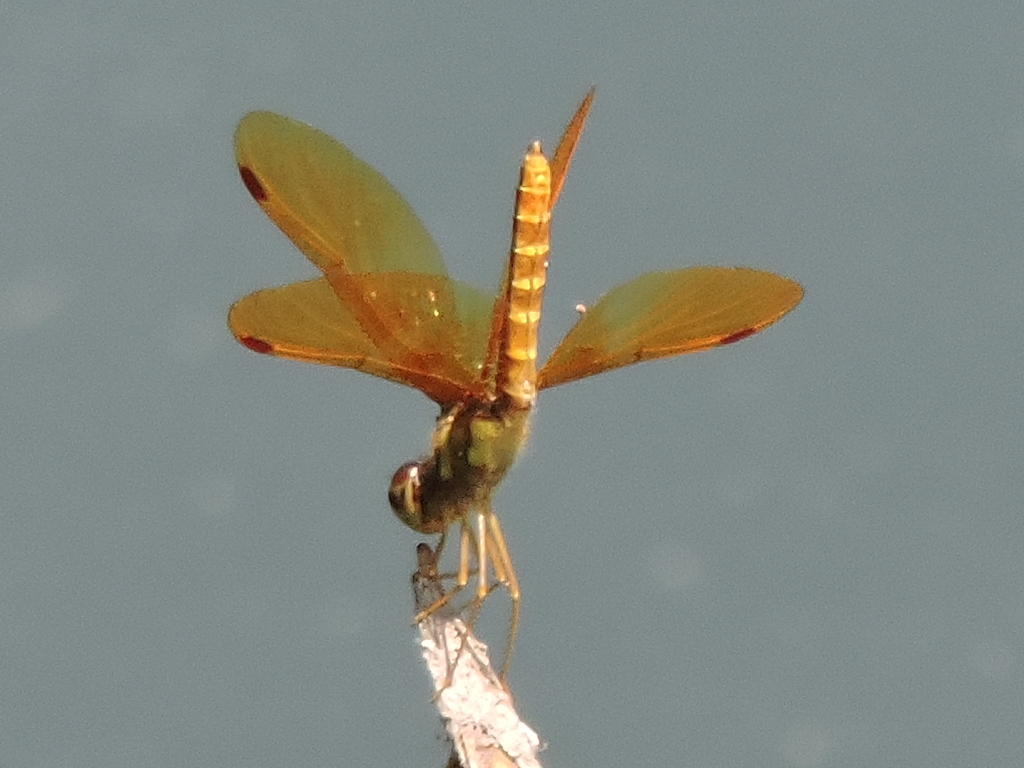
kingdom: Animalia
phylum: Arthropoda
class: Insecta
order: Odonata
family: Libellulidae
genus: Perithemis
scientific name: Perithemis tenera
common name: Eastern amberwing
